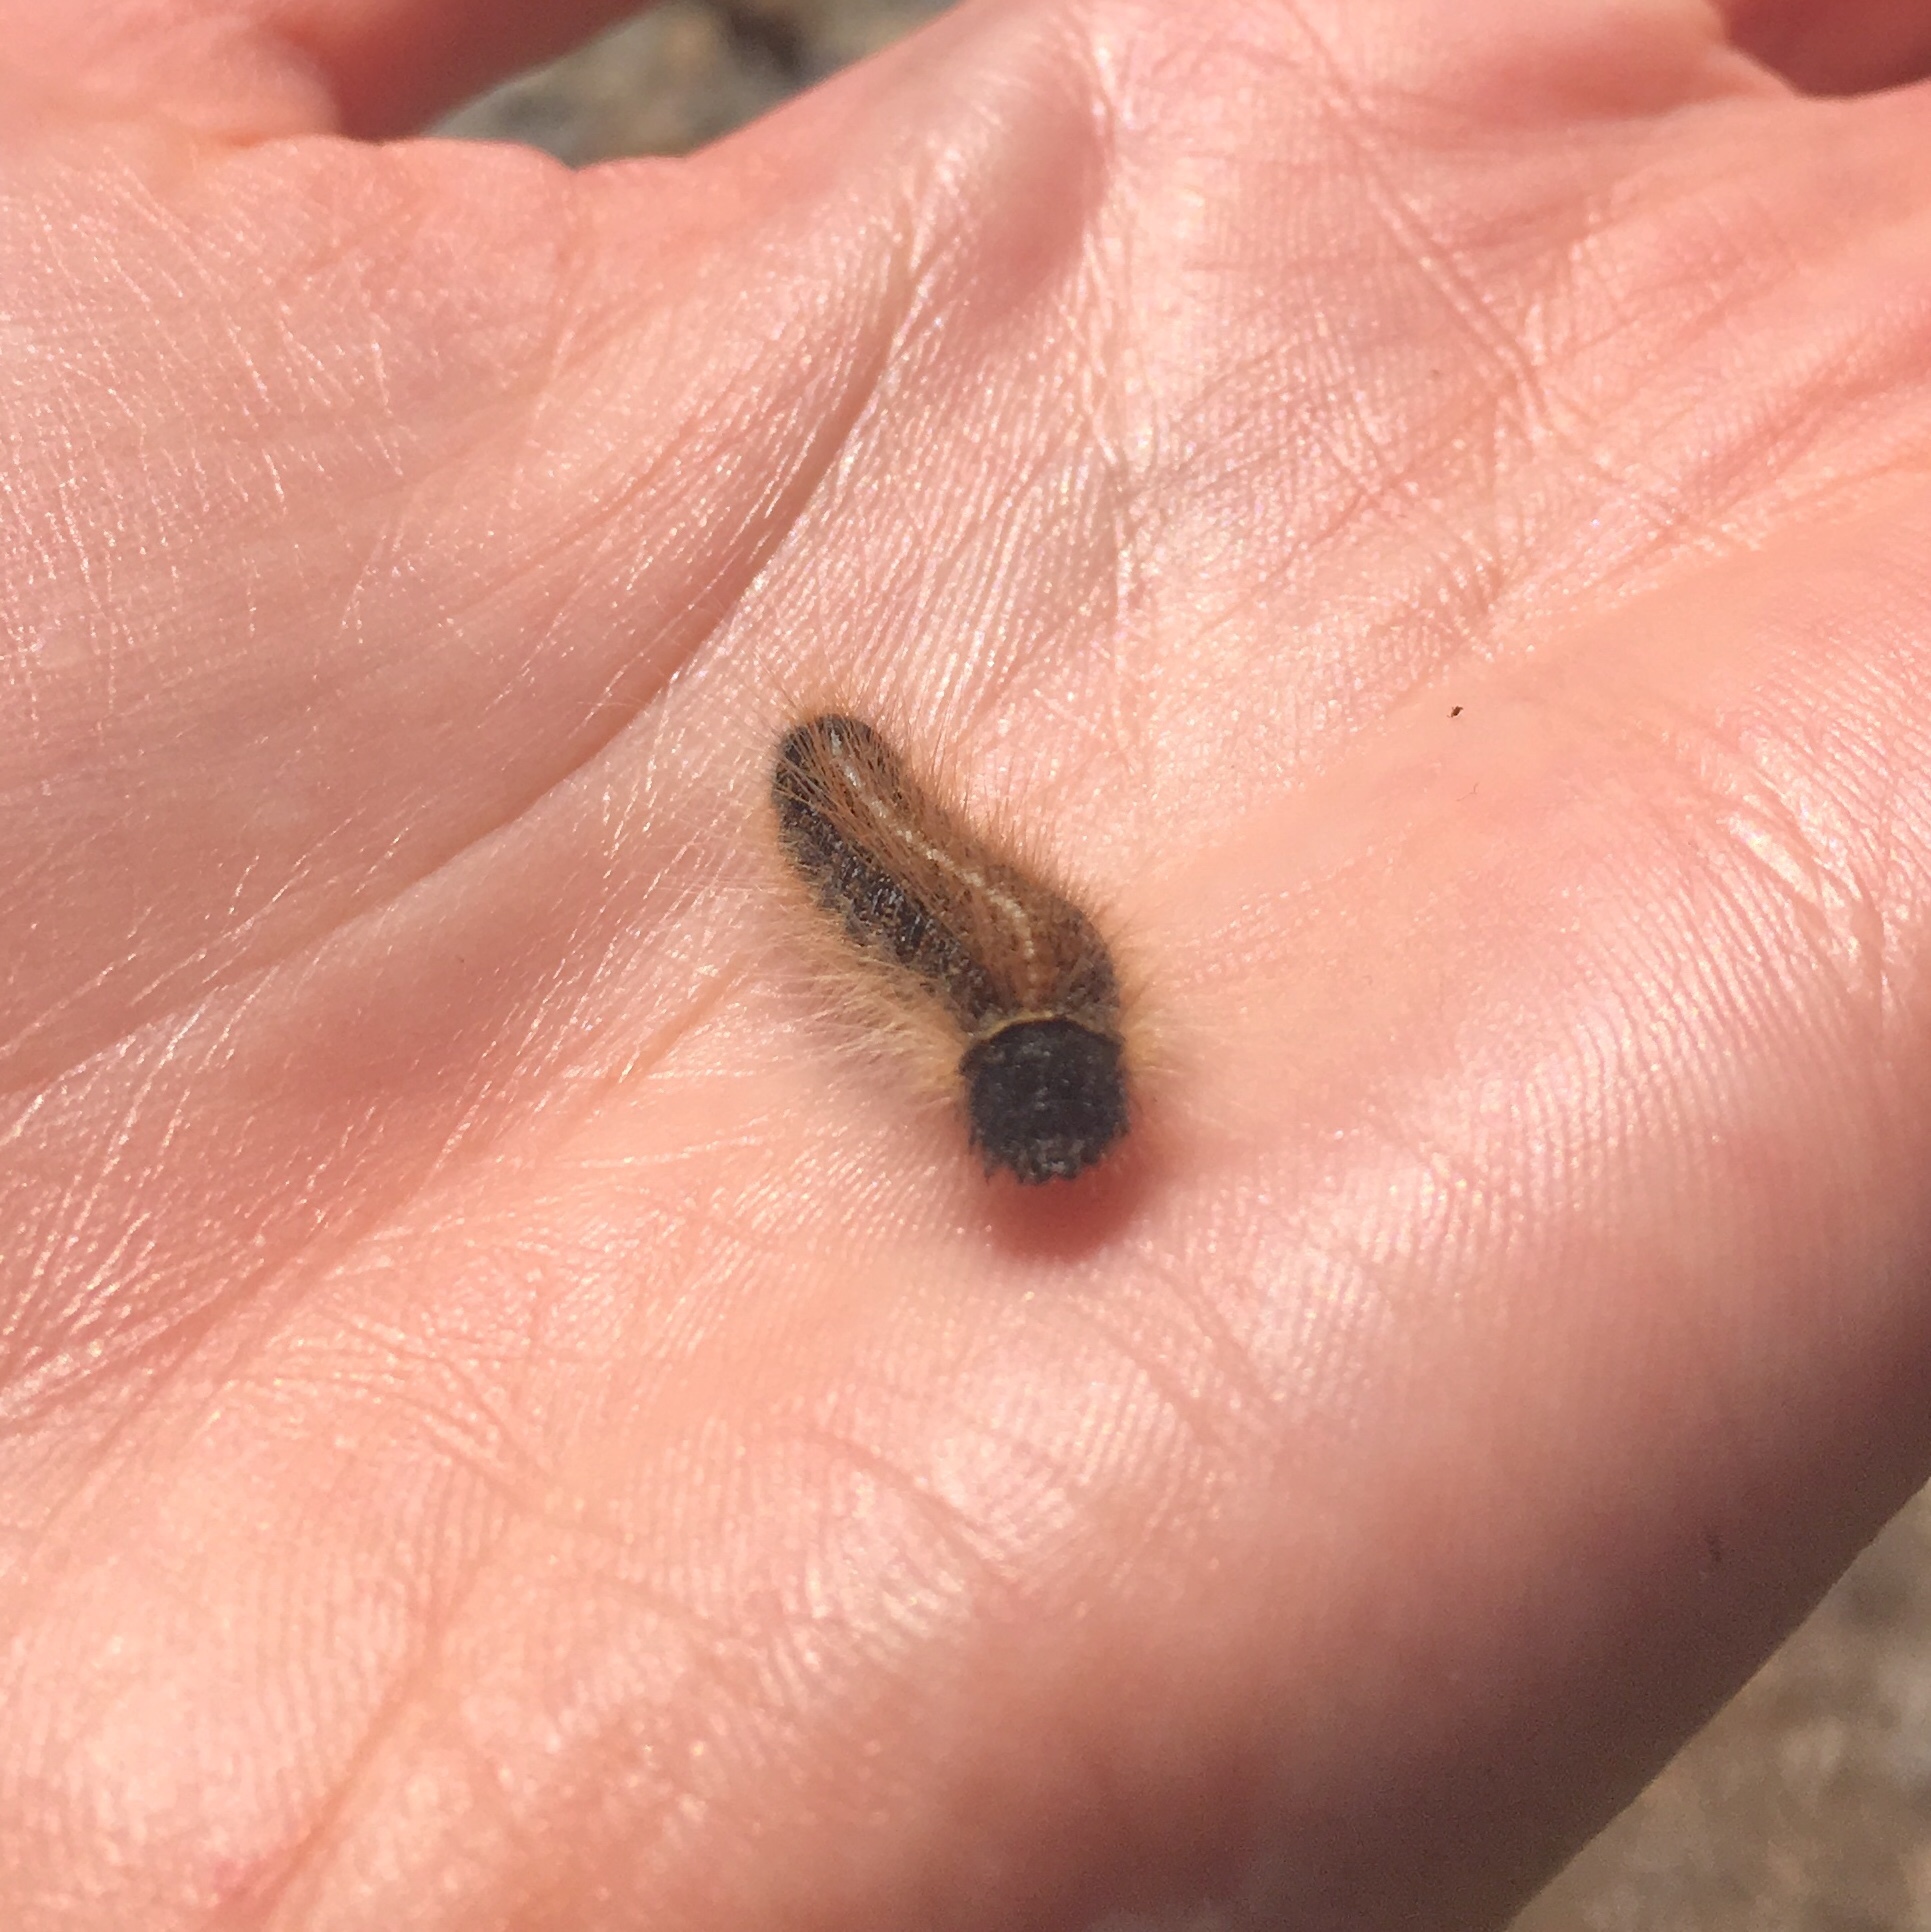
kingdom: Animalia
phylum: Arthropoda
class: Insecta
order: Lepidoptera
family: Lasiocampidae
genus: Malacosoma
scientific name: Malacosoma americana
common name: Eastern tent caterpillar moth
